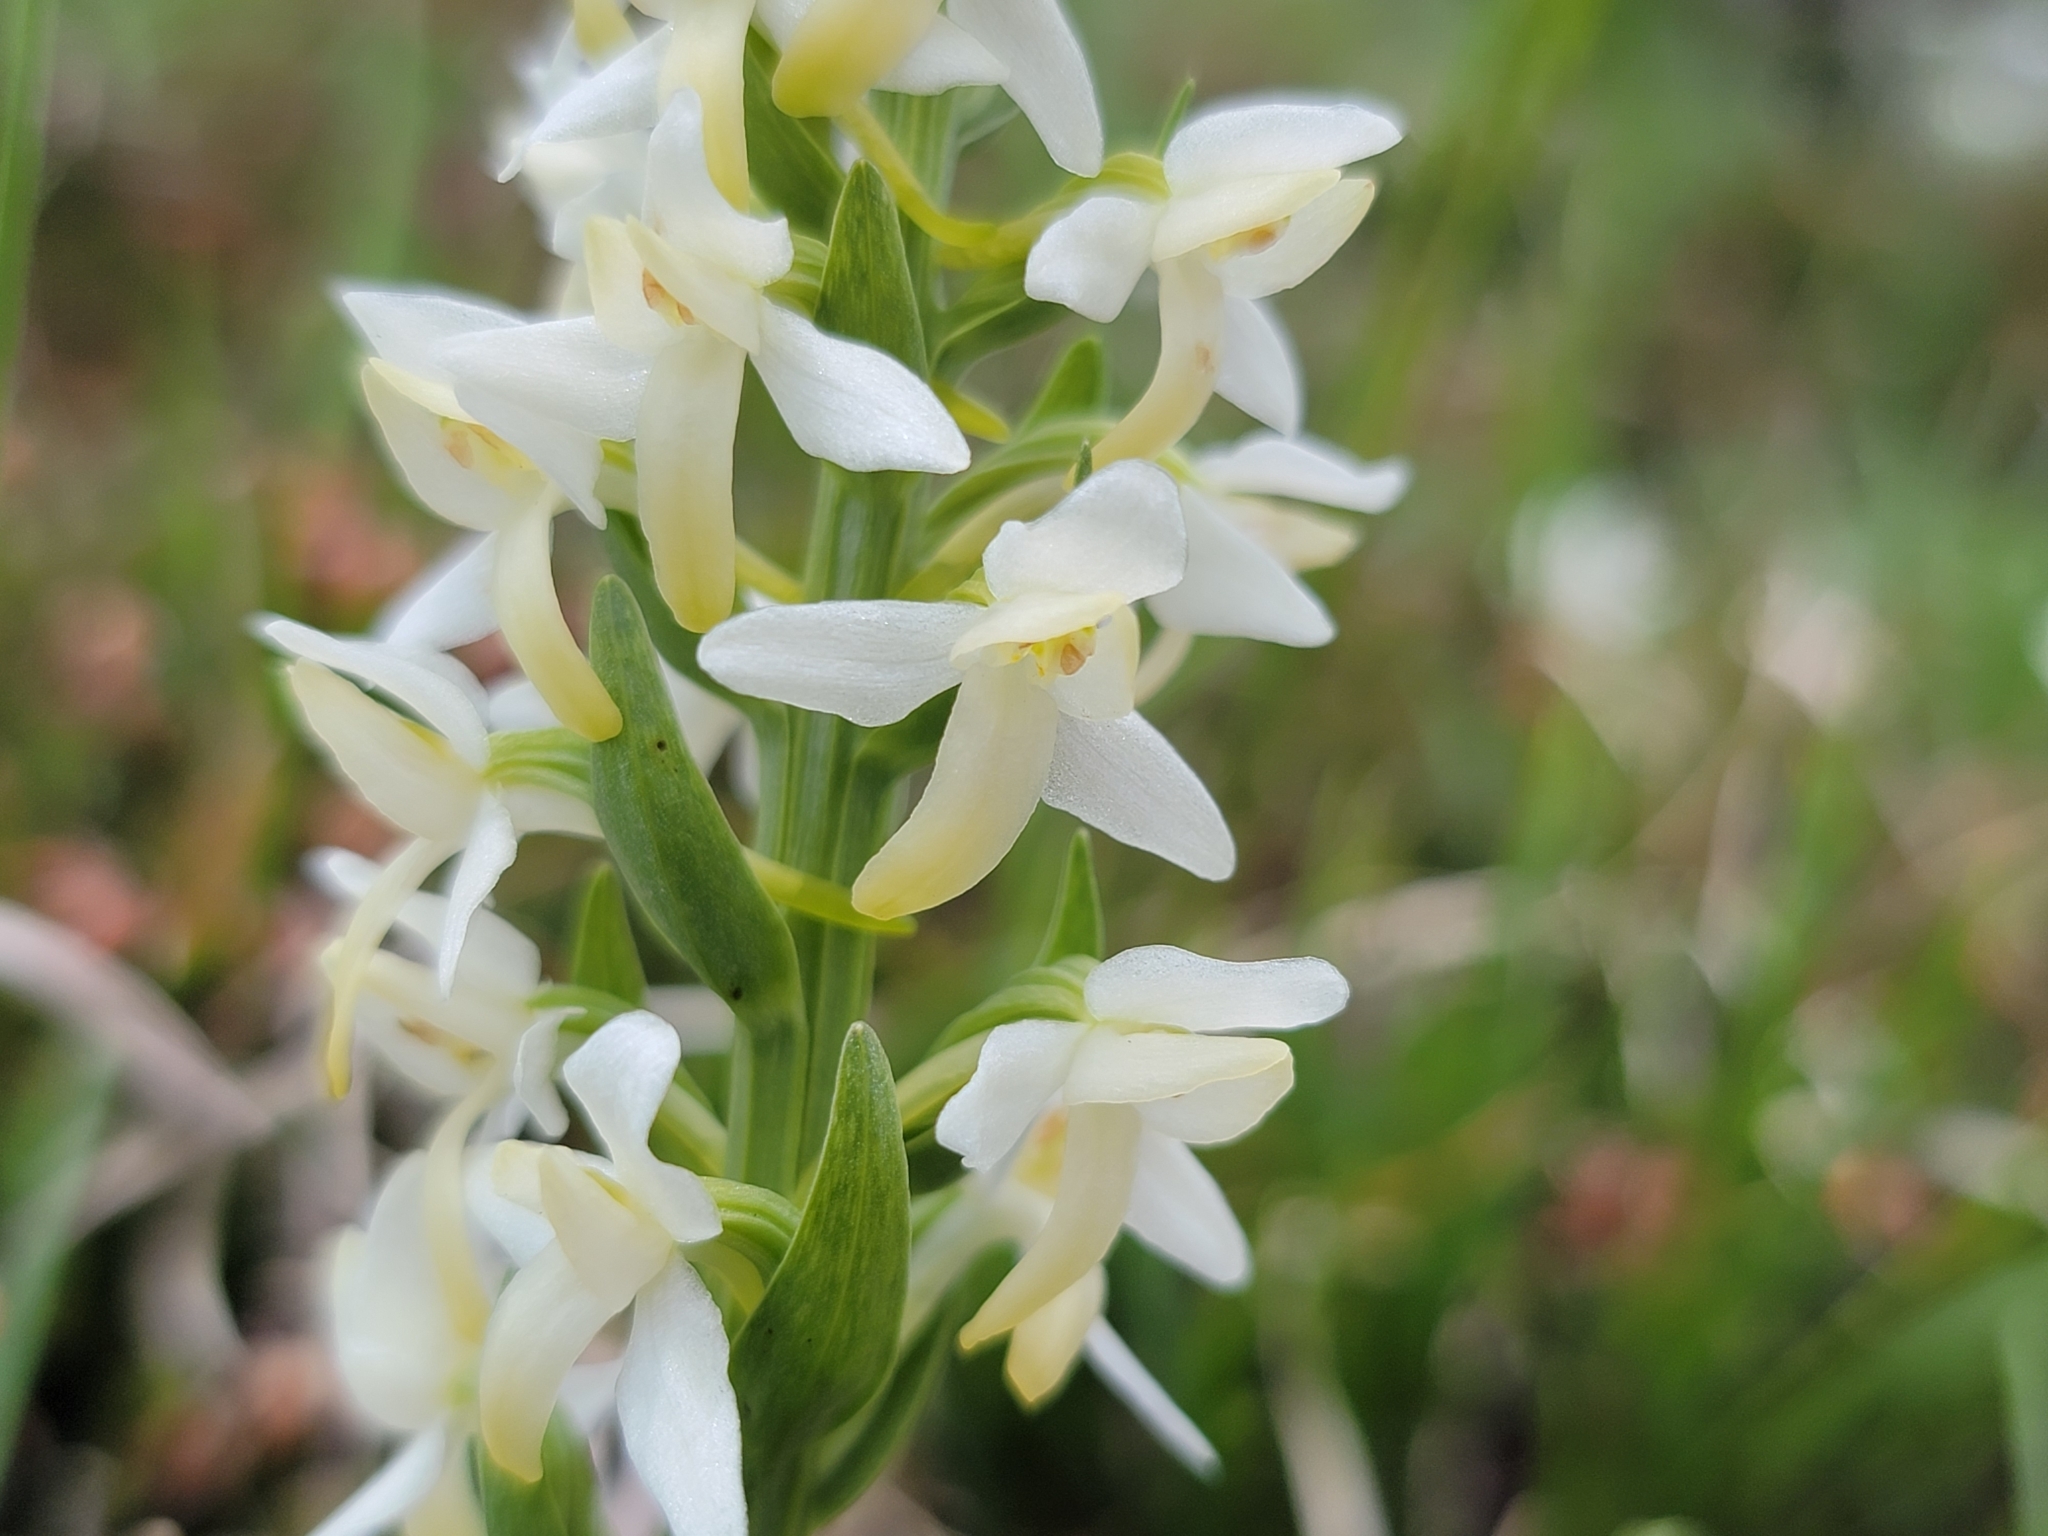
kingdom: Plantae
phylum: Tracheophyta
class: Liliopsida
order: Asparagales
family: Orchidaceae
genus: Platanthera
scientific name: Platanthera bifolia
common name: Lesser butterfly-orchid
